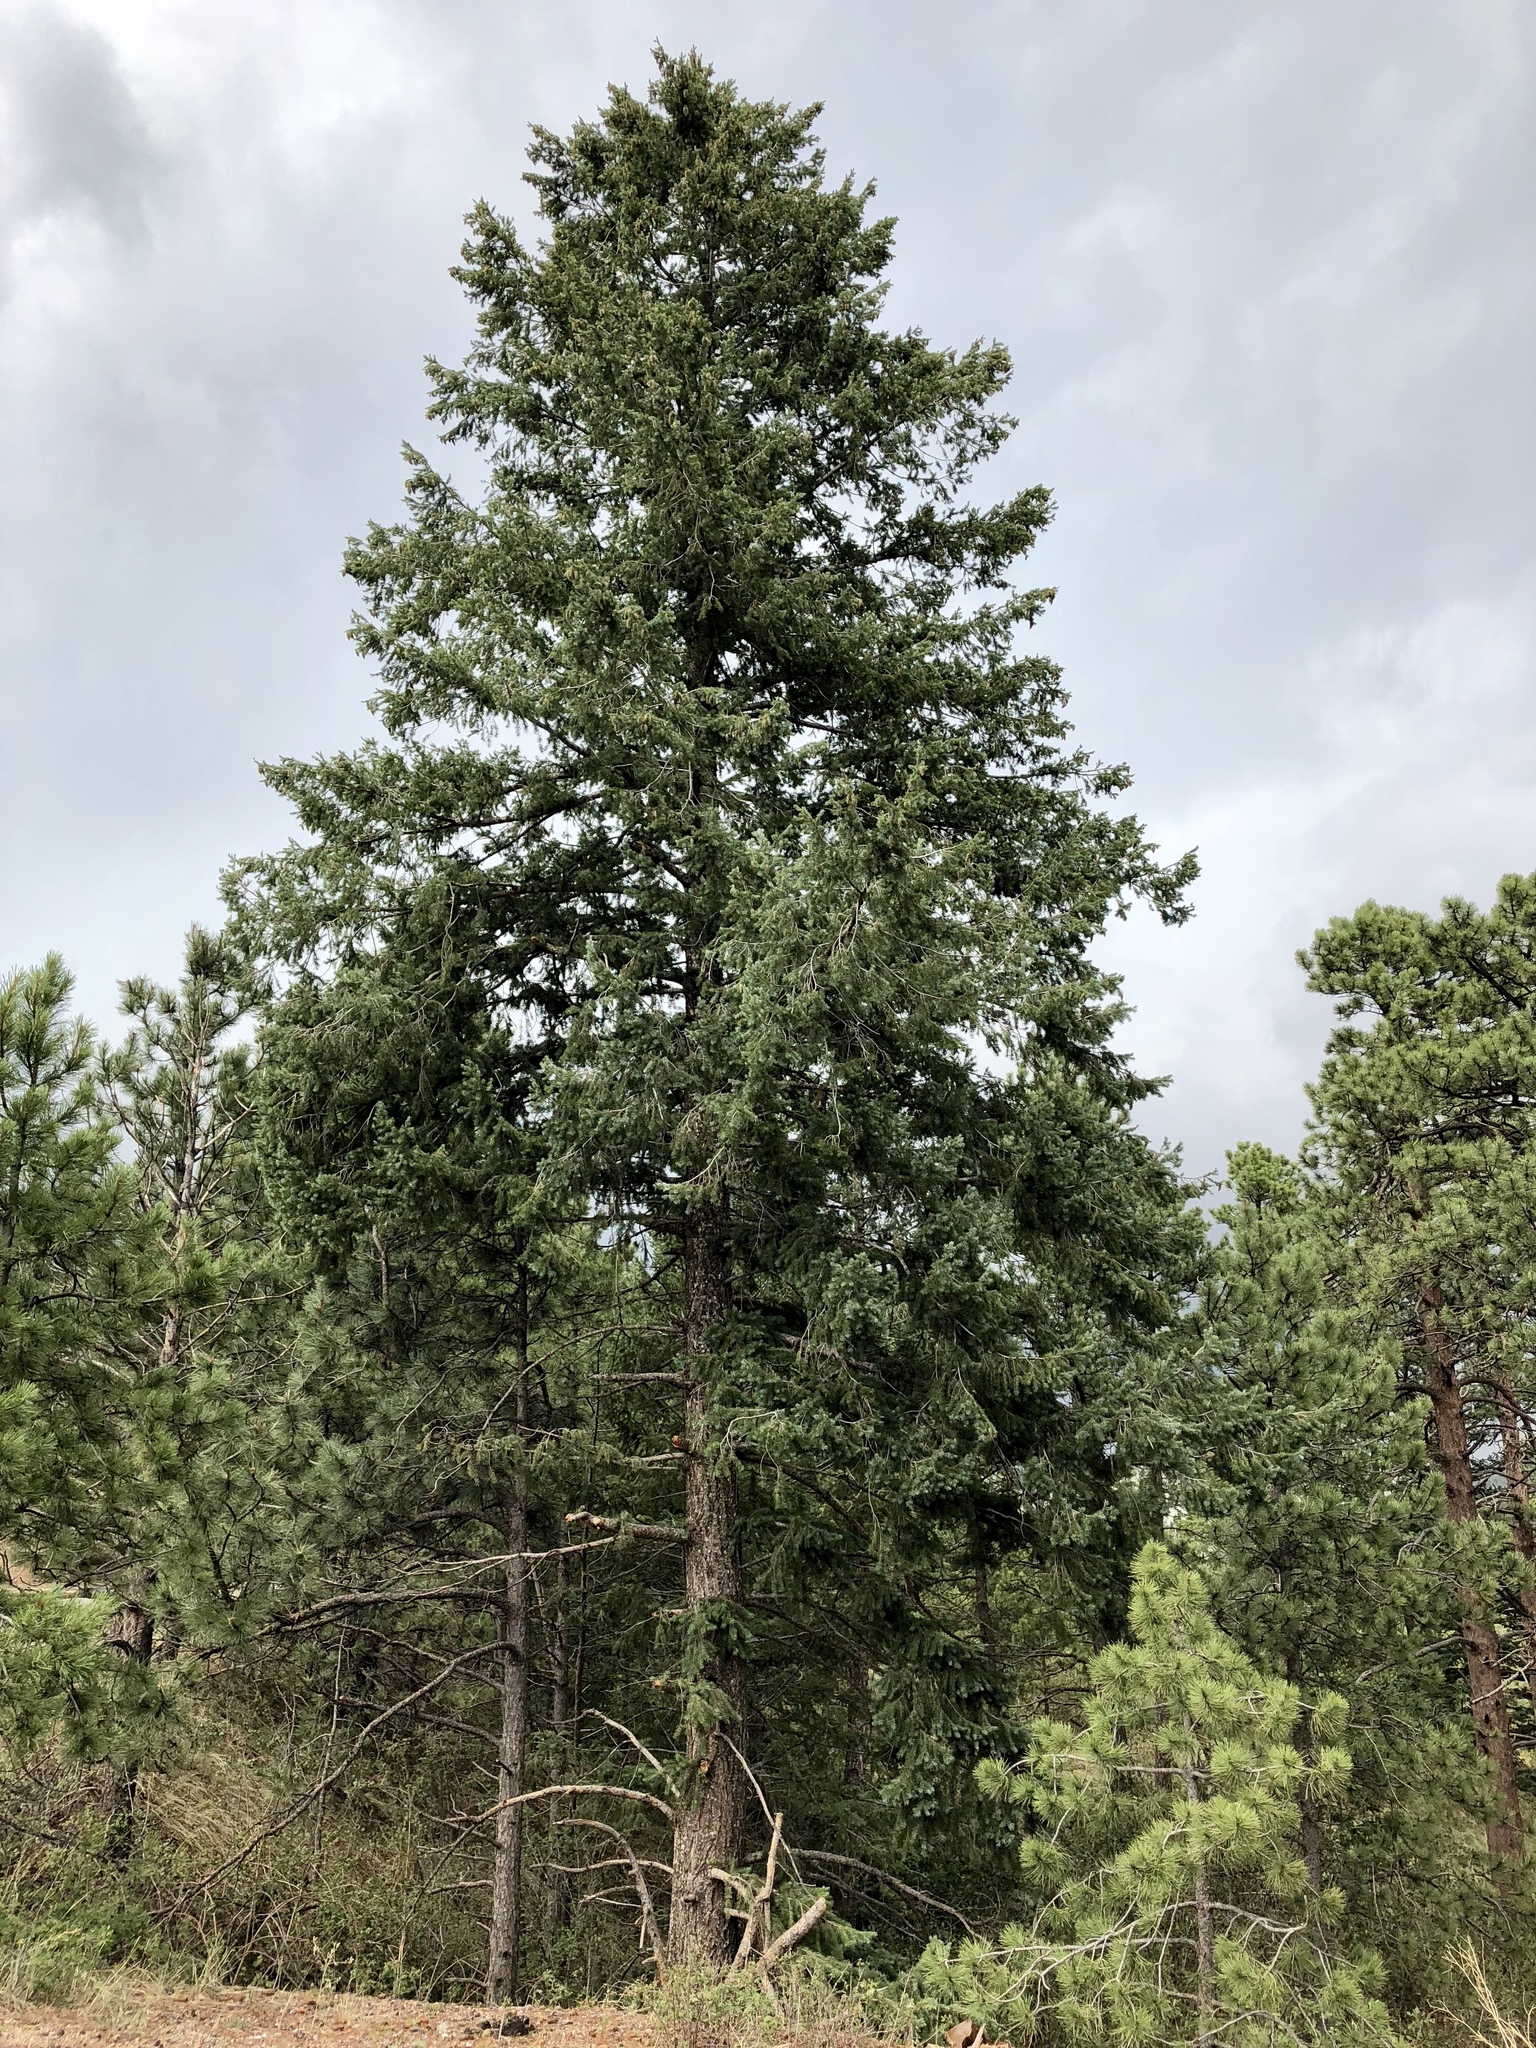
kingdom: Plantae
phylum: Tracheophyta
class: Pinopsida
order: Pinales
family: Pinaceae
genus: Pseudotsuga
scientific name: Pseudotsuga menziesii
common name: Douglas fir
